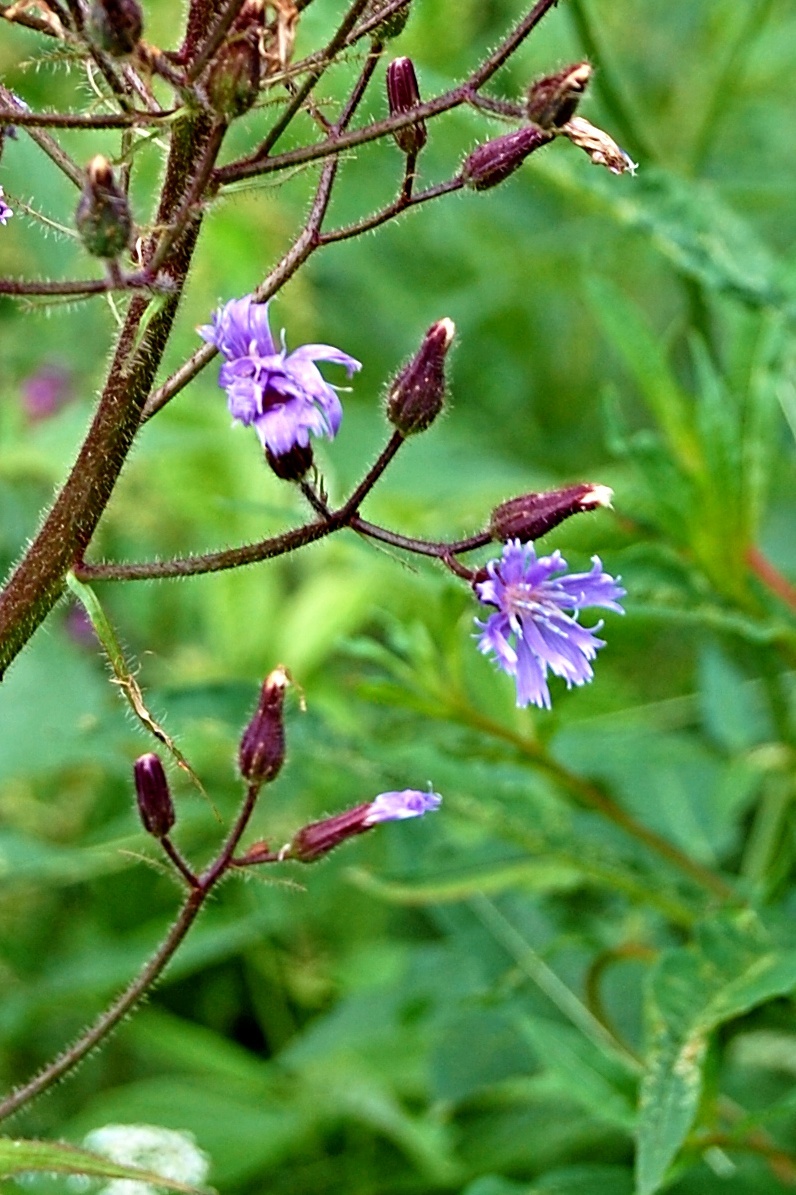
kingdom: Plantae
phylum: Tracheophyta
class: Magnoliopsida
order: Asterales
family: Asteraceae
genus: Cicerbita
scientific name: Cicerbita alpina
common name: Alpine blue-sow-thistle
